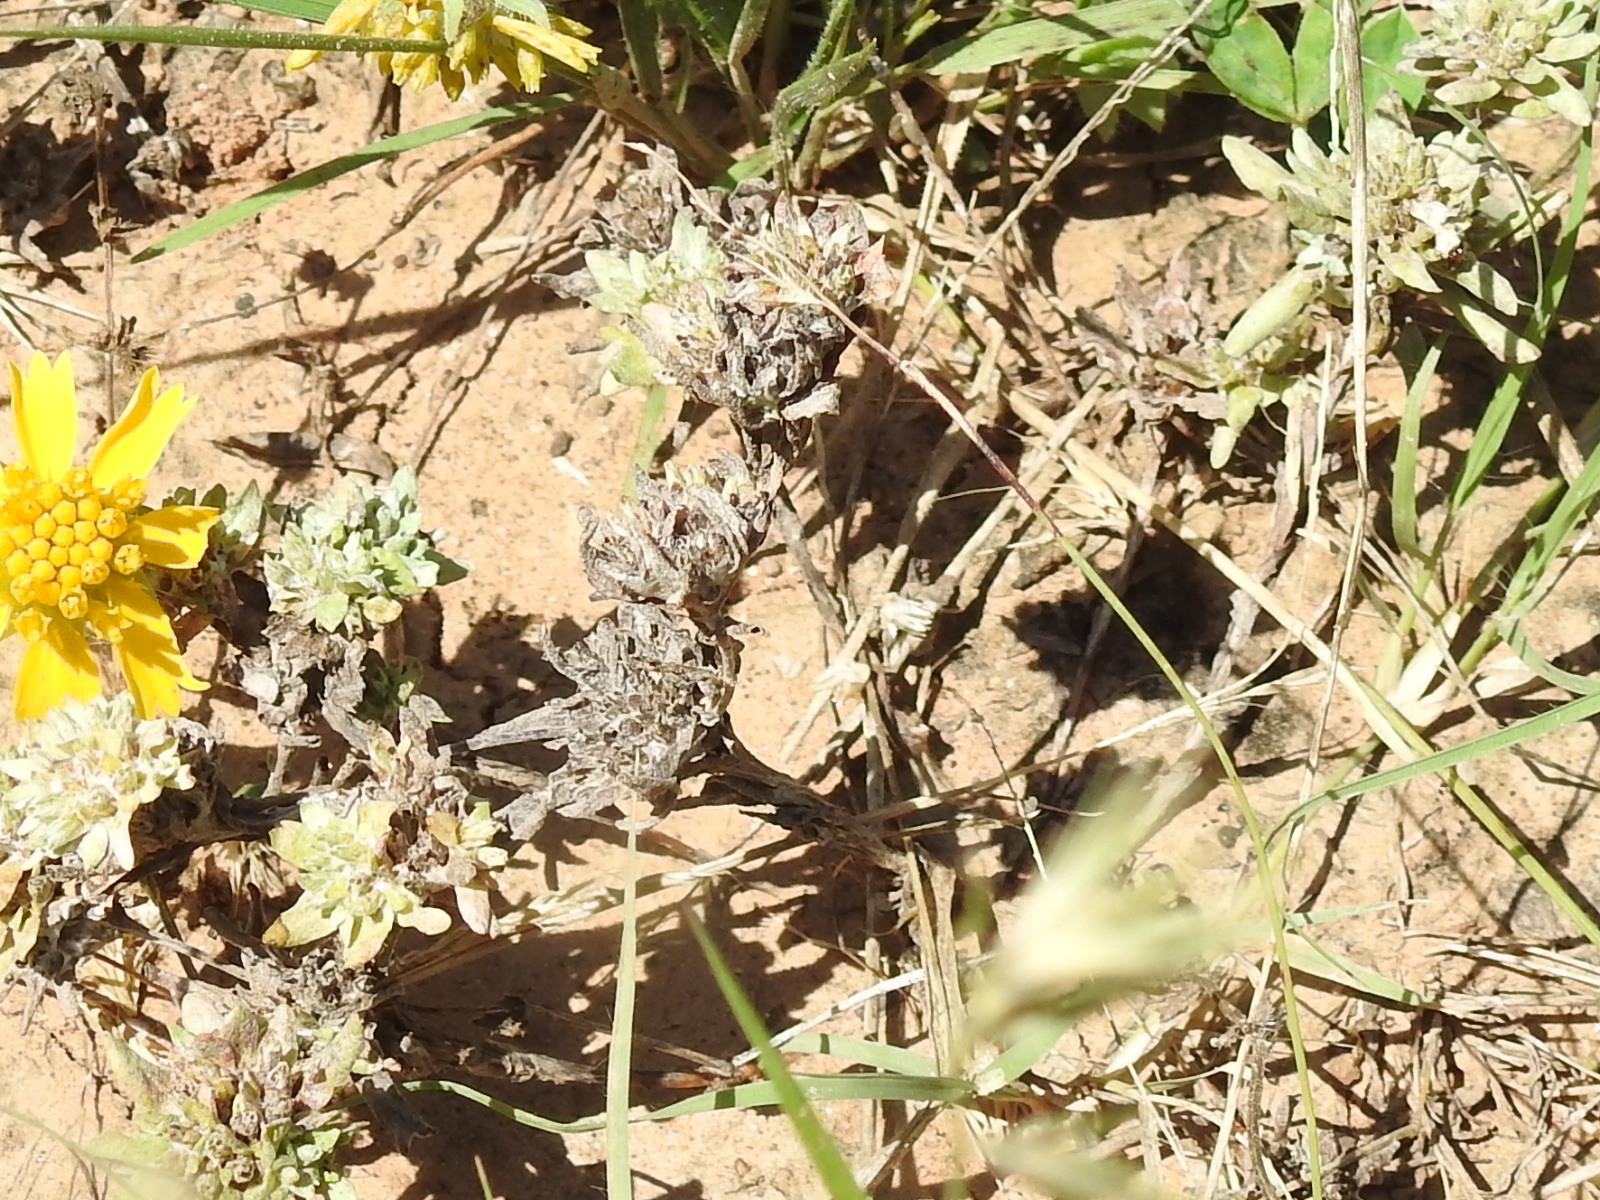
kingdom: Plantae
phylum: Tracheophyta
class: Magnoliopsida
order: Asterales
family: Asteraceae
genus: Diaperia
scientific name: Diaperia prolifera
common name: Big-head rabbit-tobacco
